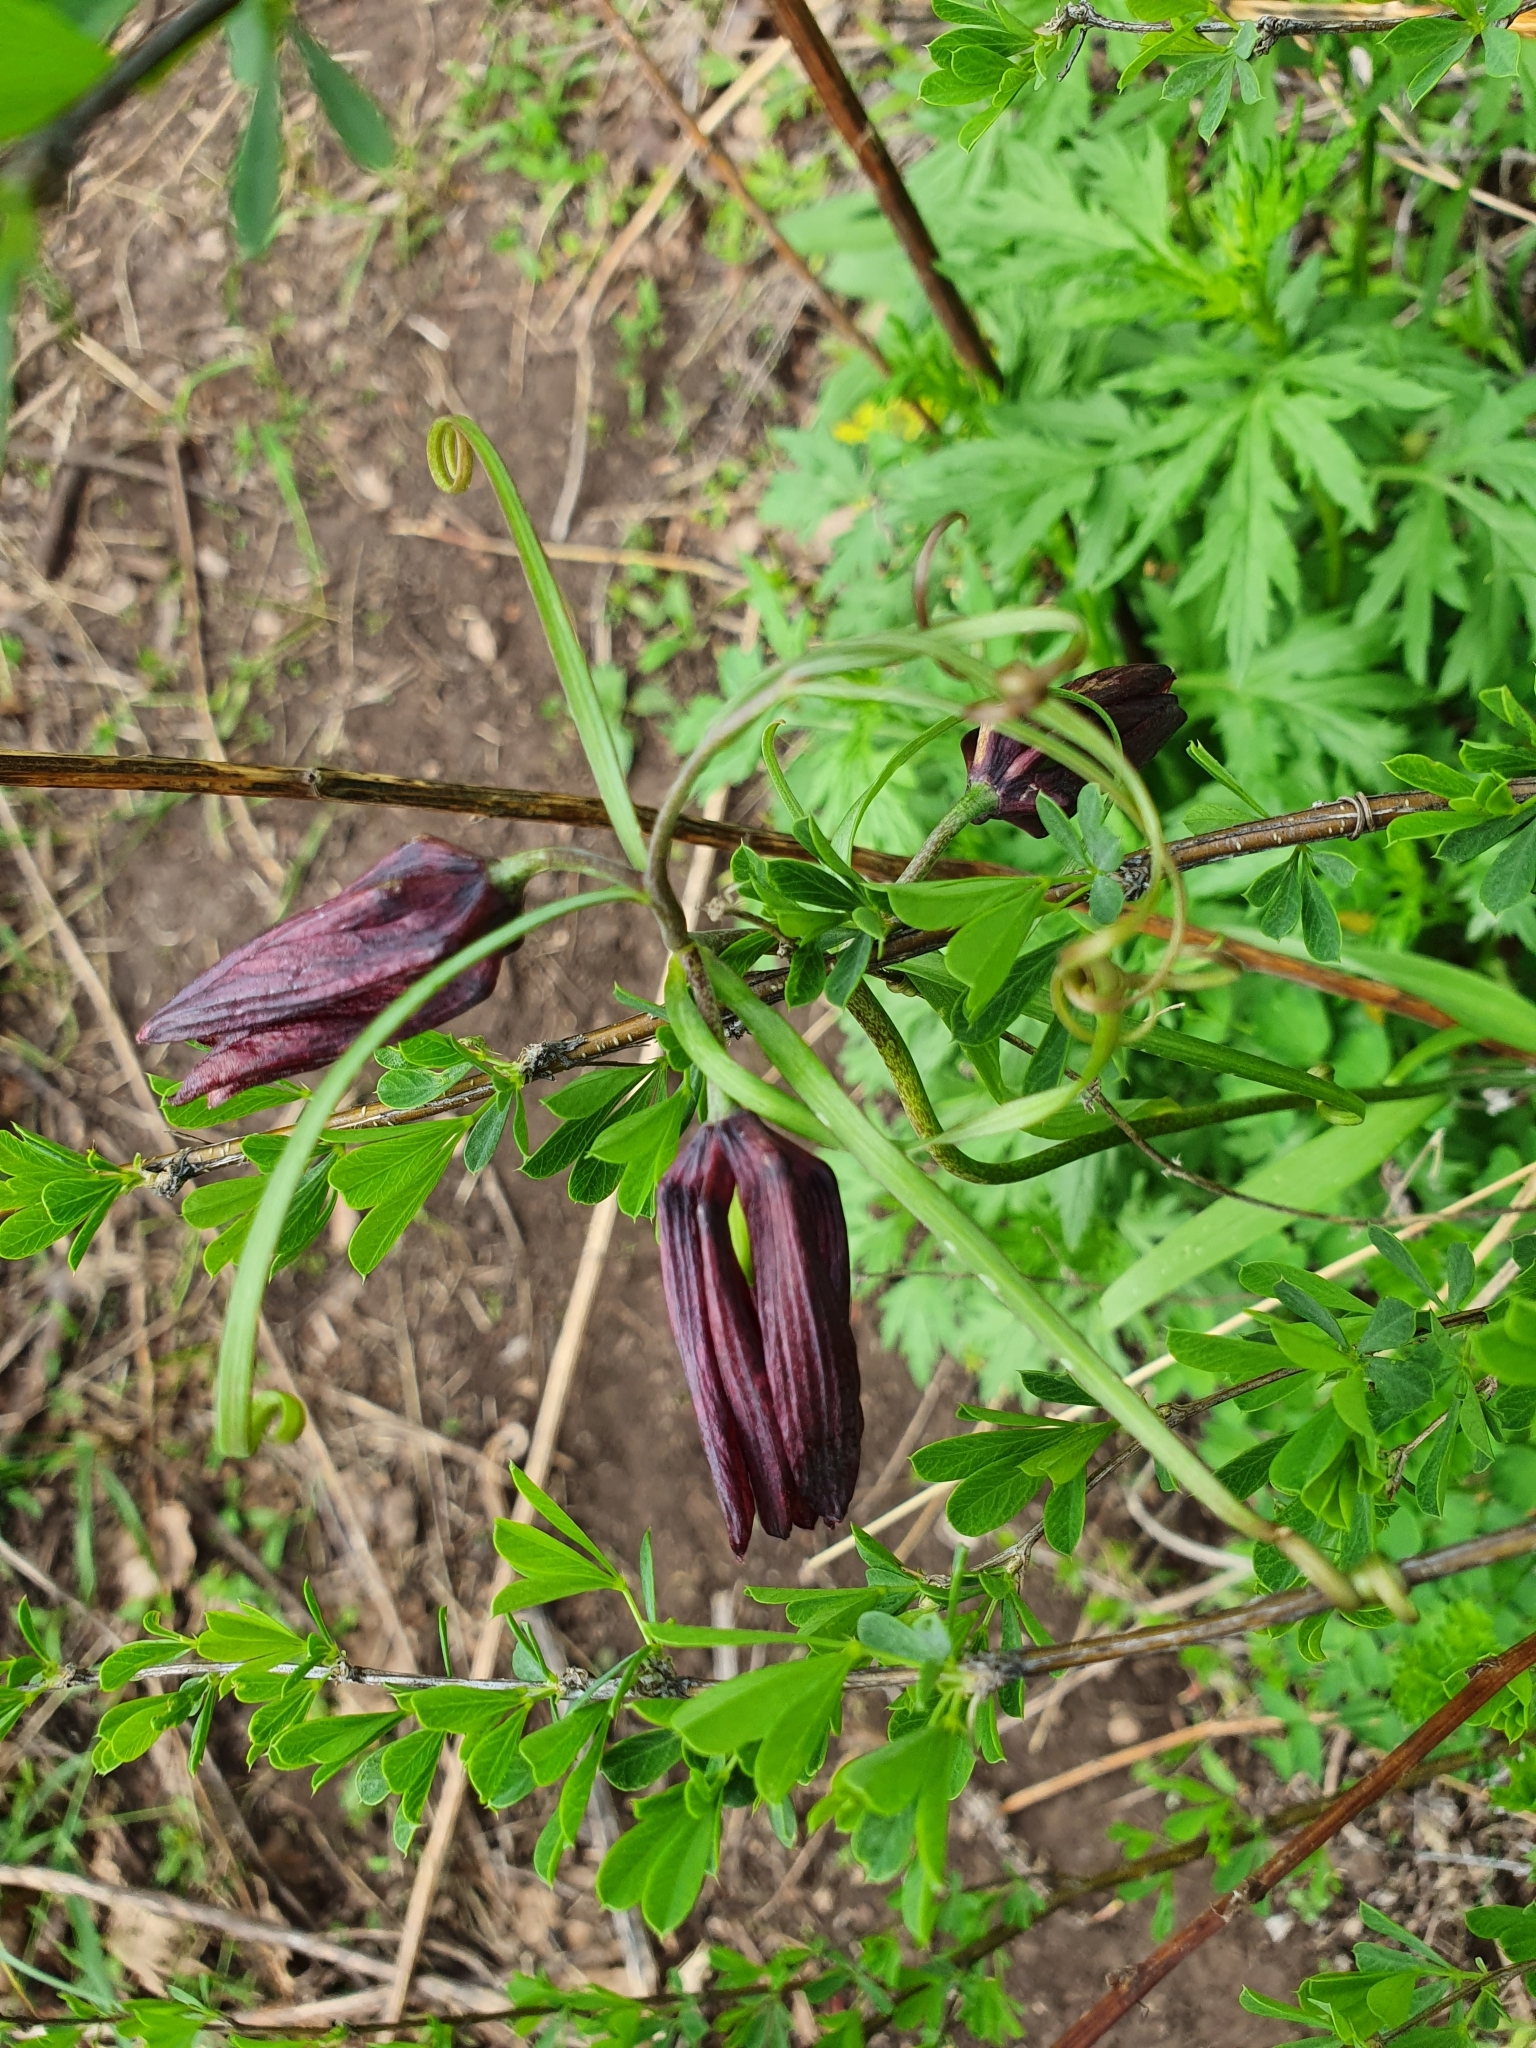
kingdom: Plantae
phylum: Tracheophyta
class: Liliopsida
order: Liliales
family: Liliaceae
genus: Fritillaria
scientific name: Fritillaria ruthenica
